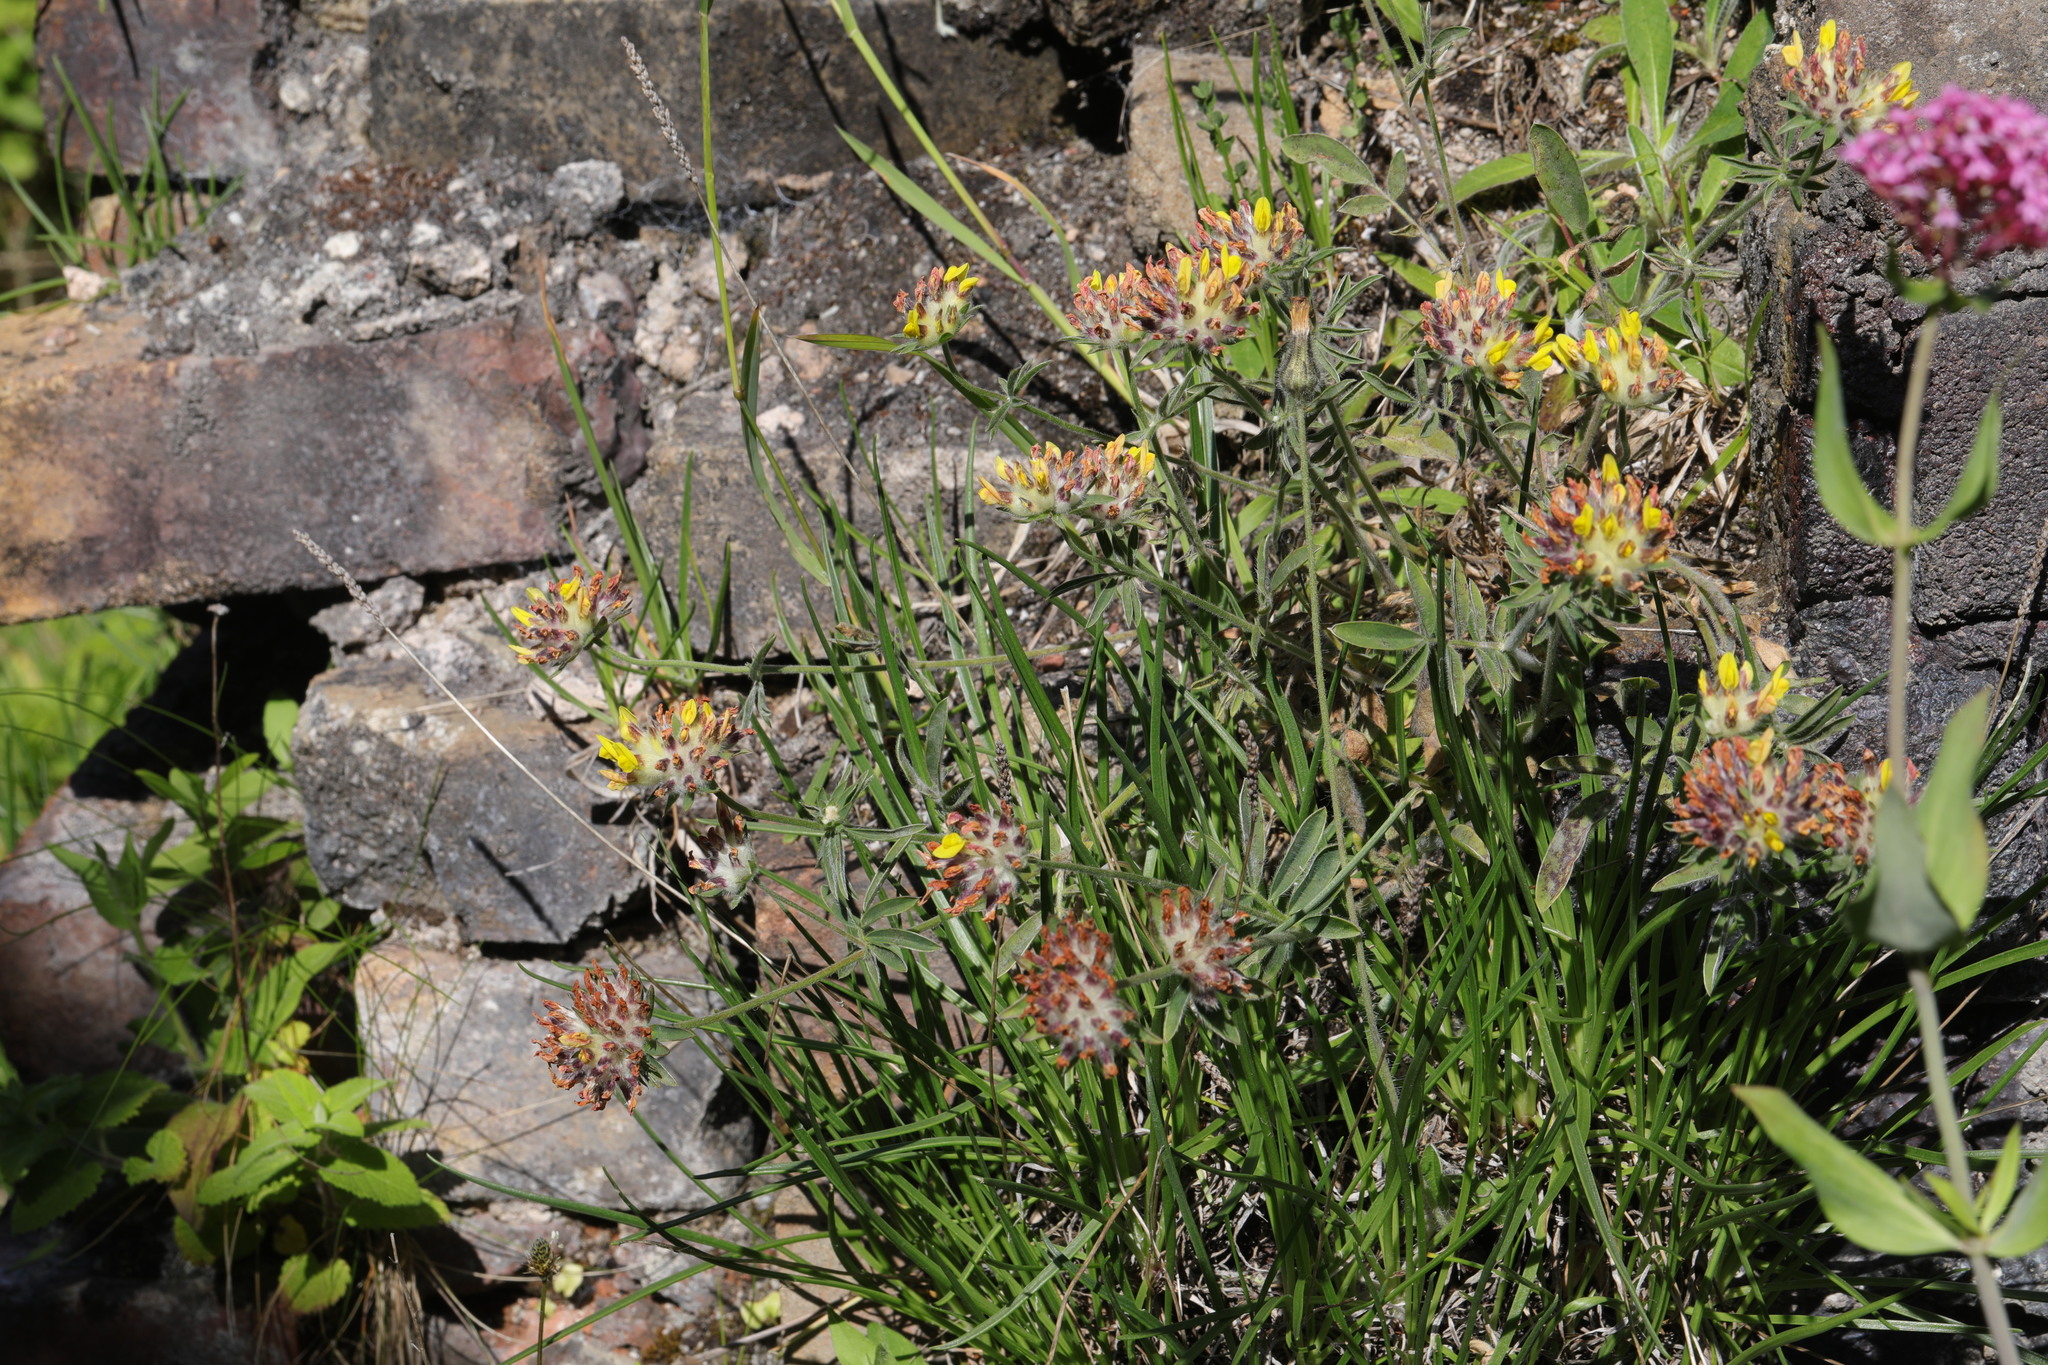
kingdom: Plantae
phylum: Tracheophyta
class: Magnoliopsida
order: Fabales
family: Fabaceae
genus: Anthyllis
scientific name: Anthyllis vulneraria
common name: Kidney vetch
